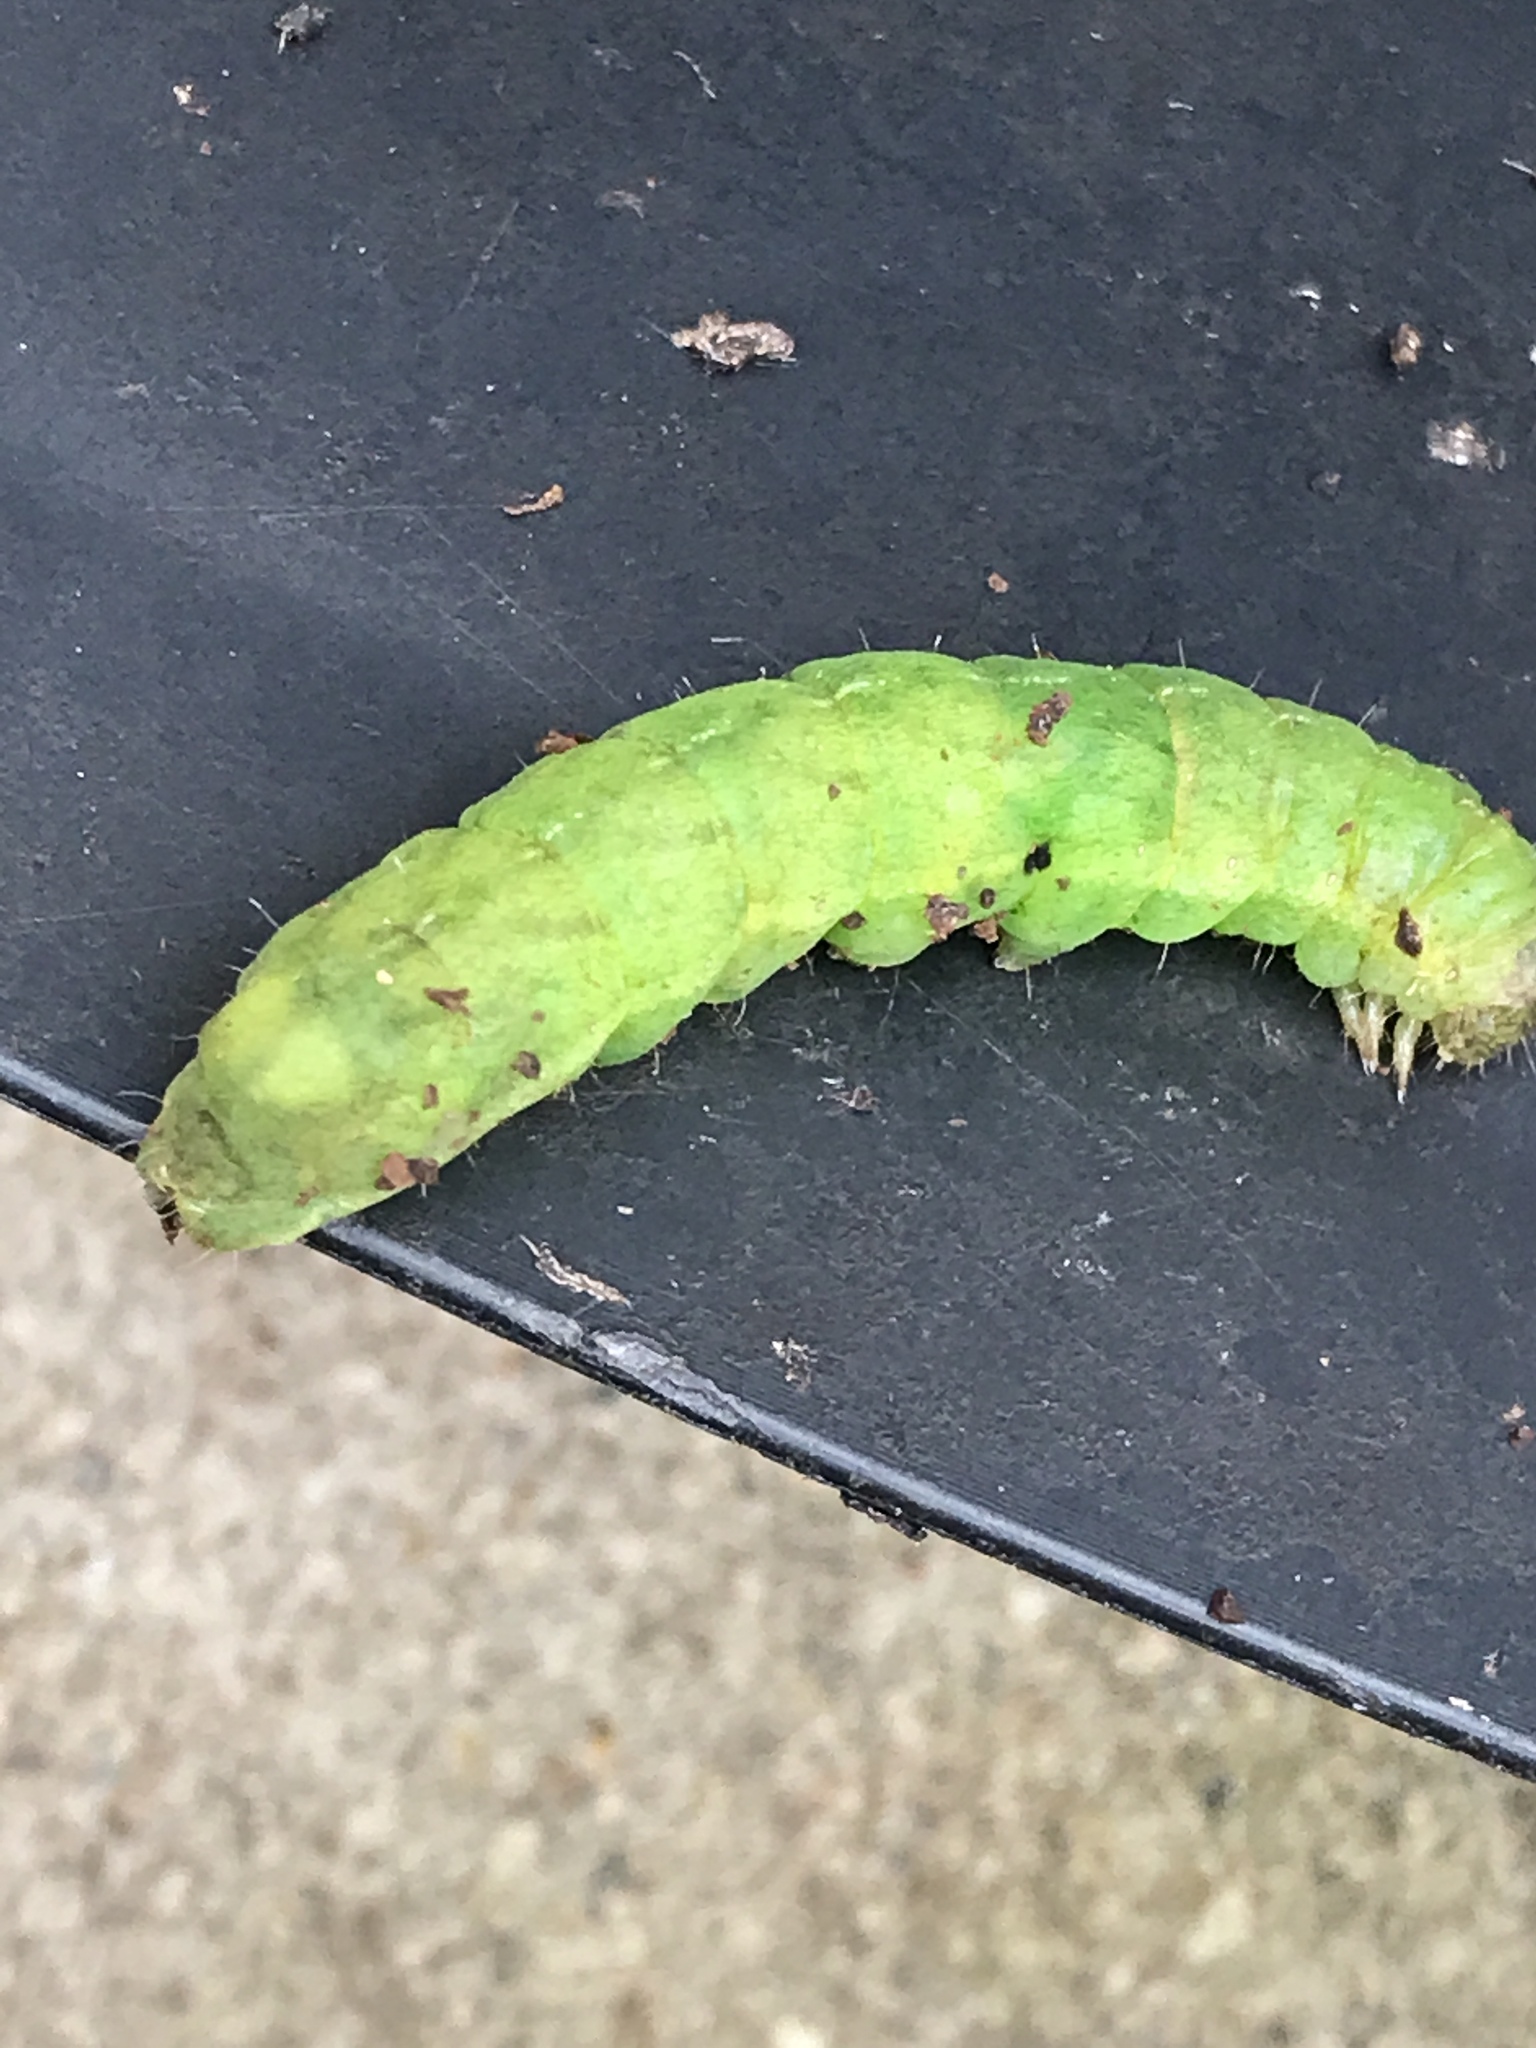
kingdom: Animalia
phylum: Arthropoda
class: Insecta
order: Lepidoptera
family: Noctuidae
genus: Phlogophora
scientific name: Phlogophora meticulosa
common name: Angle shades
